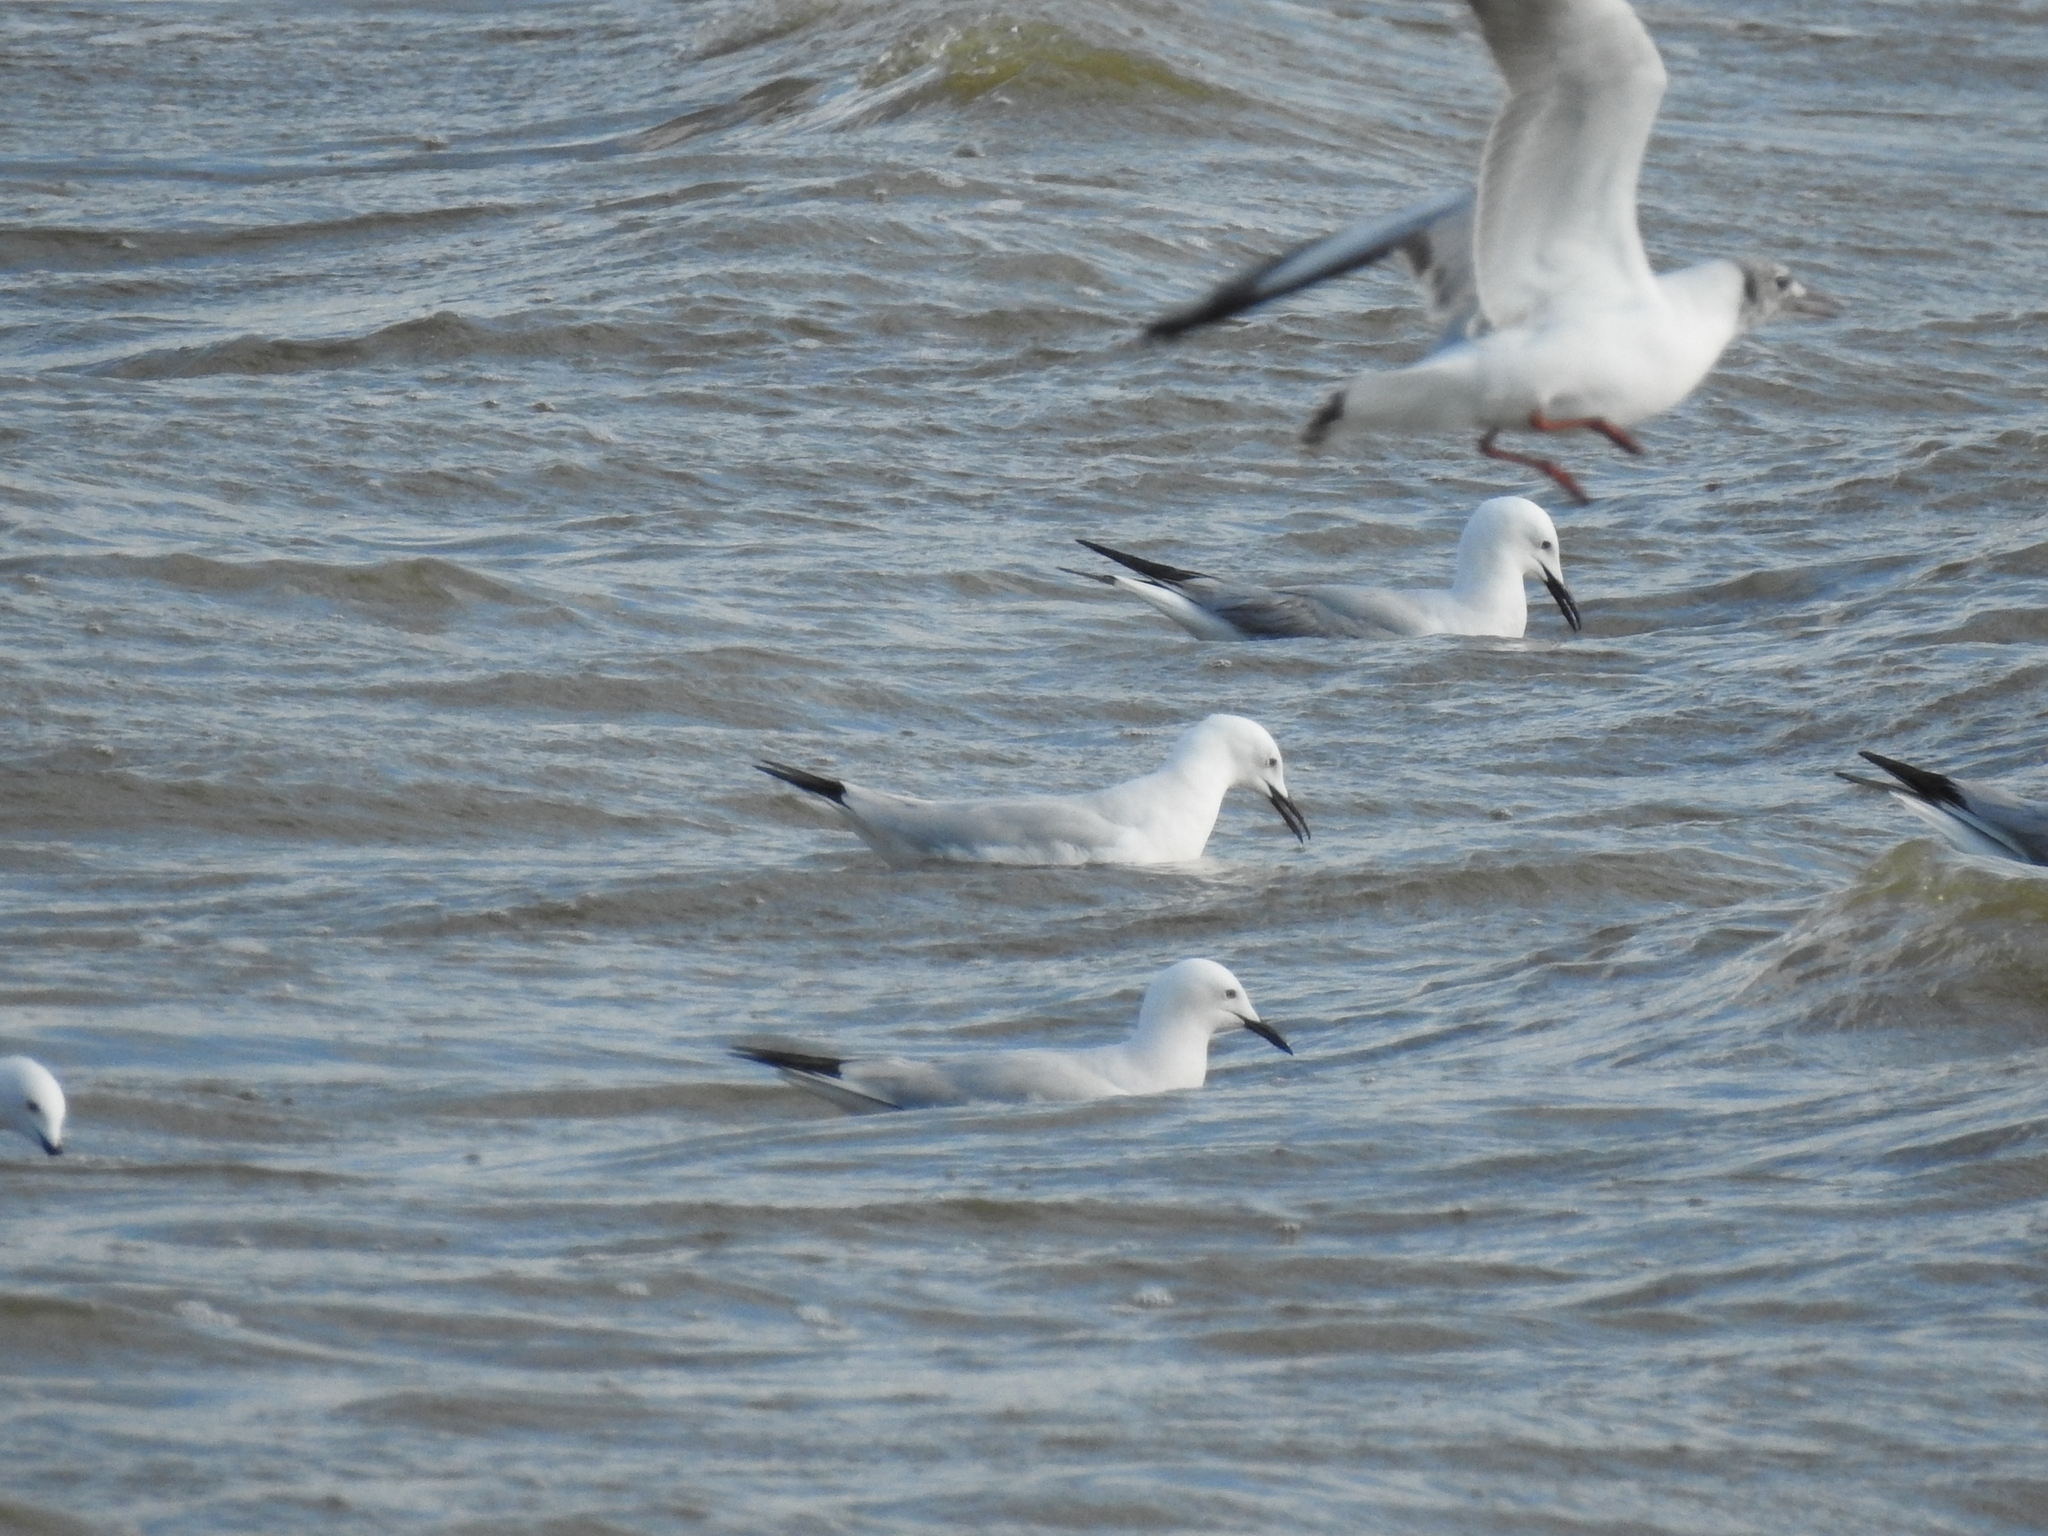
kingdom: Animalia
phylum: Chordata
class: Aves
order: Charadriiformes
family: Laridae
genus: Chroicocephalus
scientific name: Chroicocephalus genei
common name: Slender-billed gull
